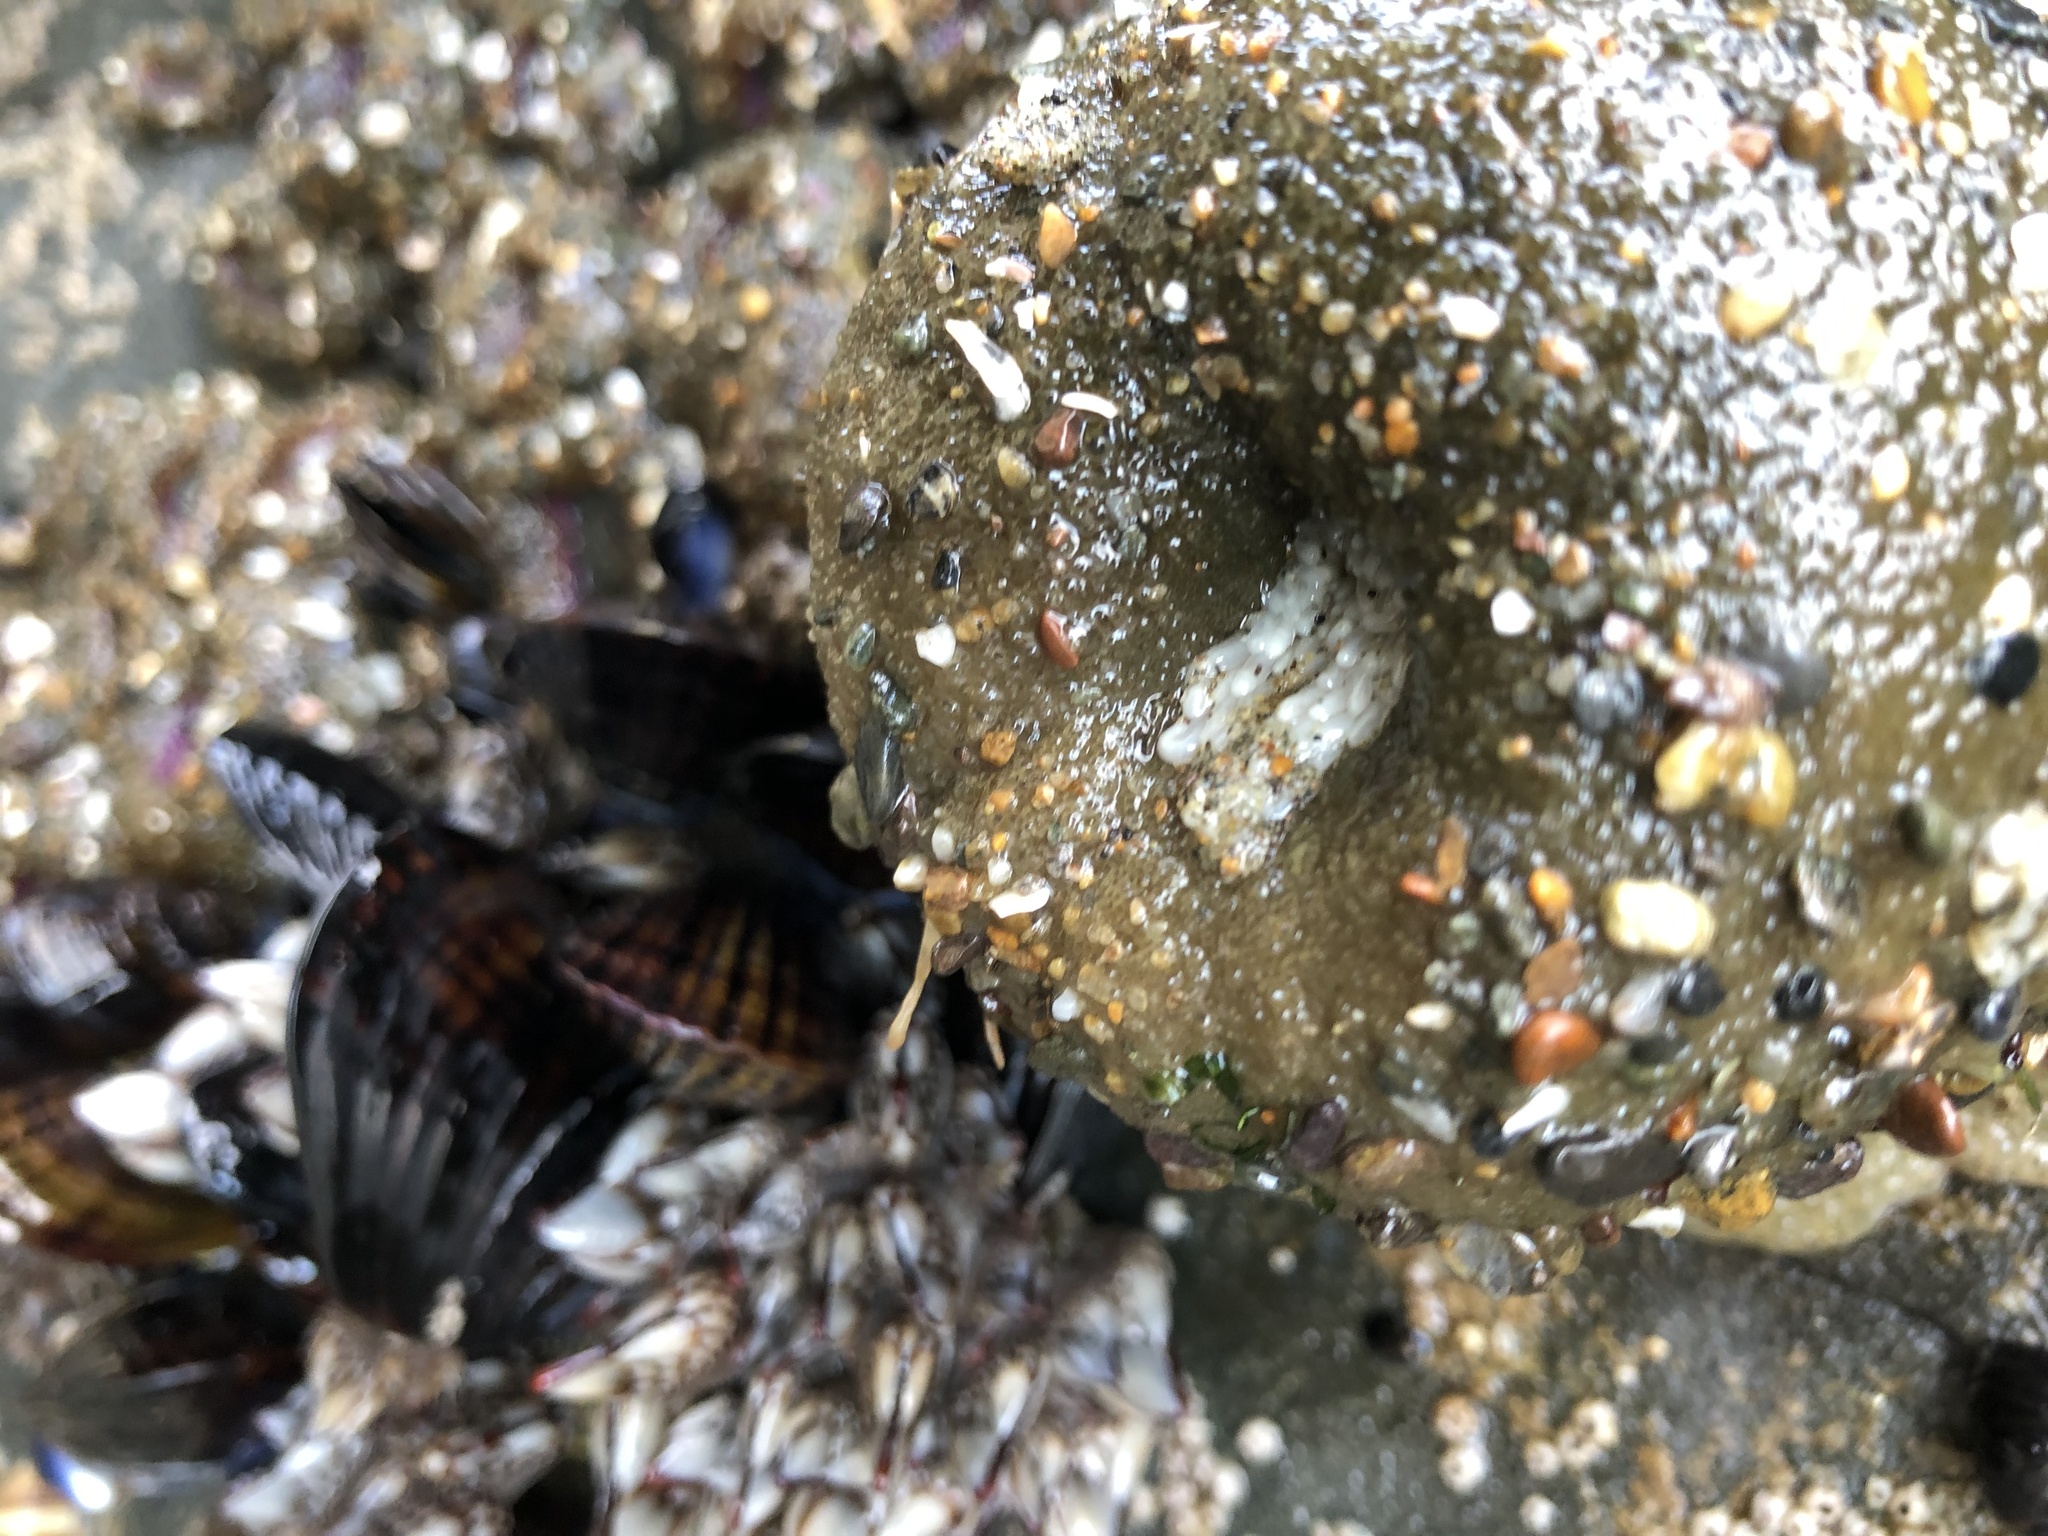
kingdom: Animalia
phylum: Cnidaria
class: Anthozoa
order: Actiniaria
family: Actiniidae
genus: Anthopleura
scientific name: Anthopleura xanthogrammica
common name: Giant green anemone
